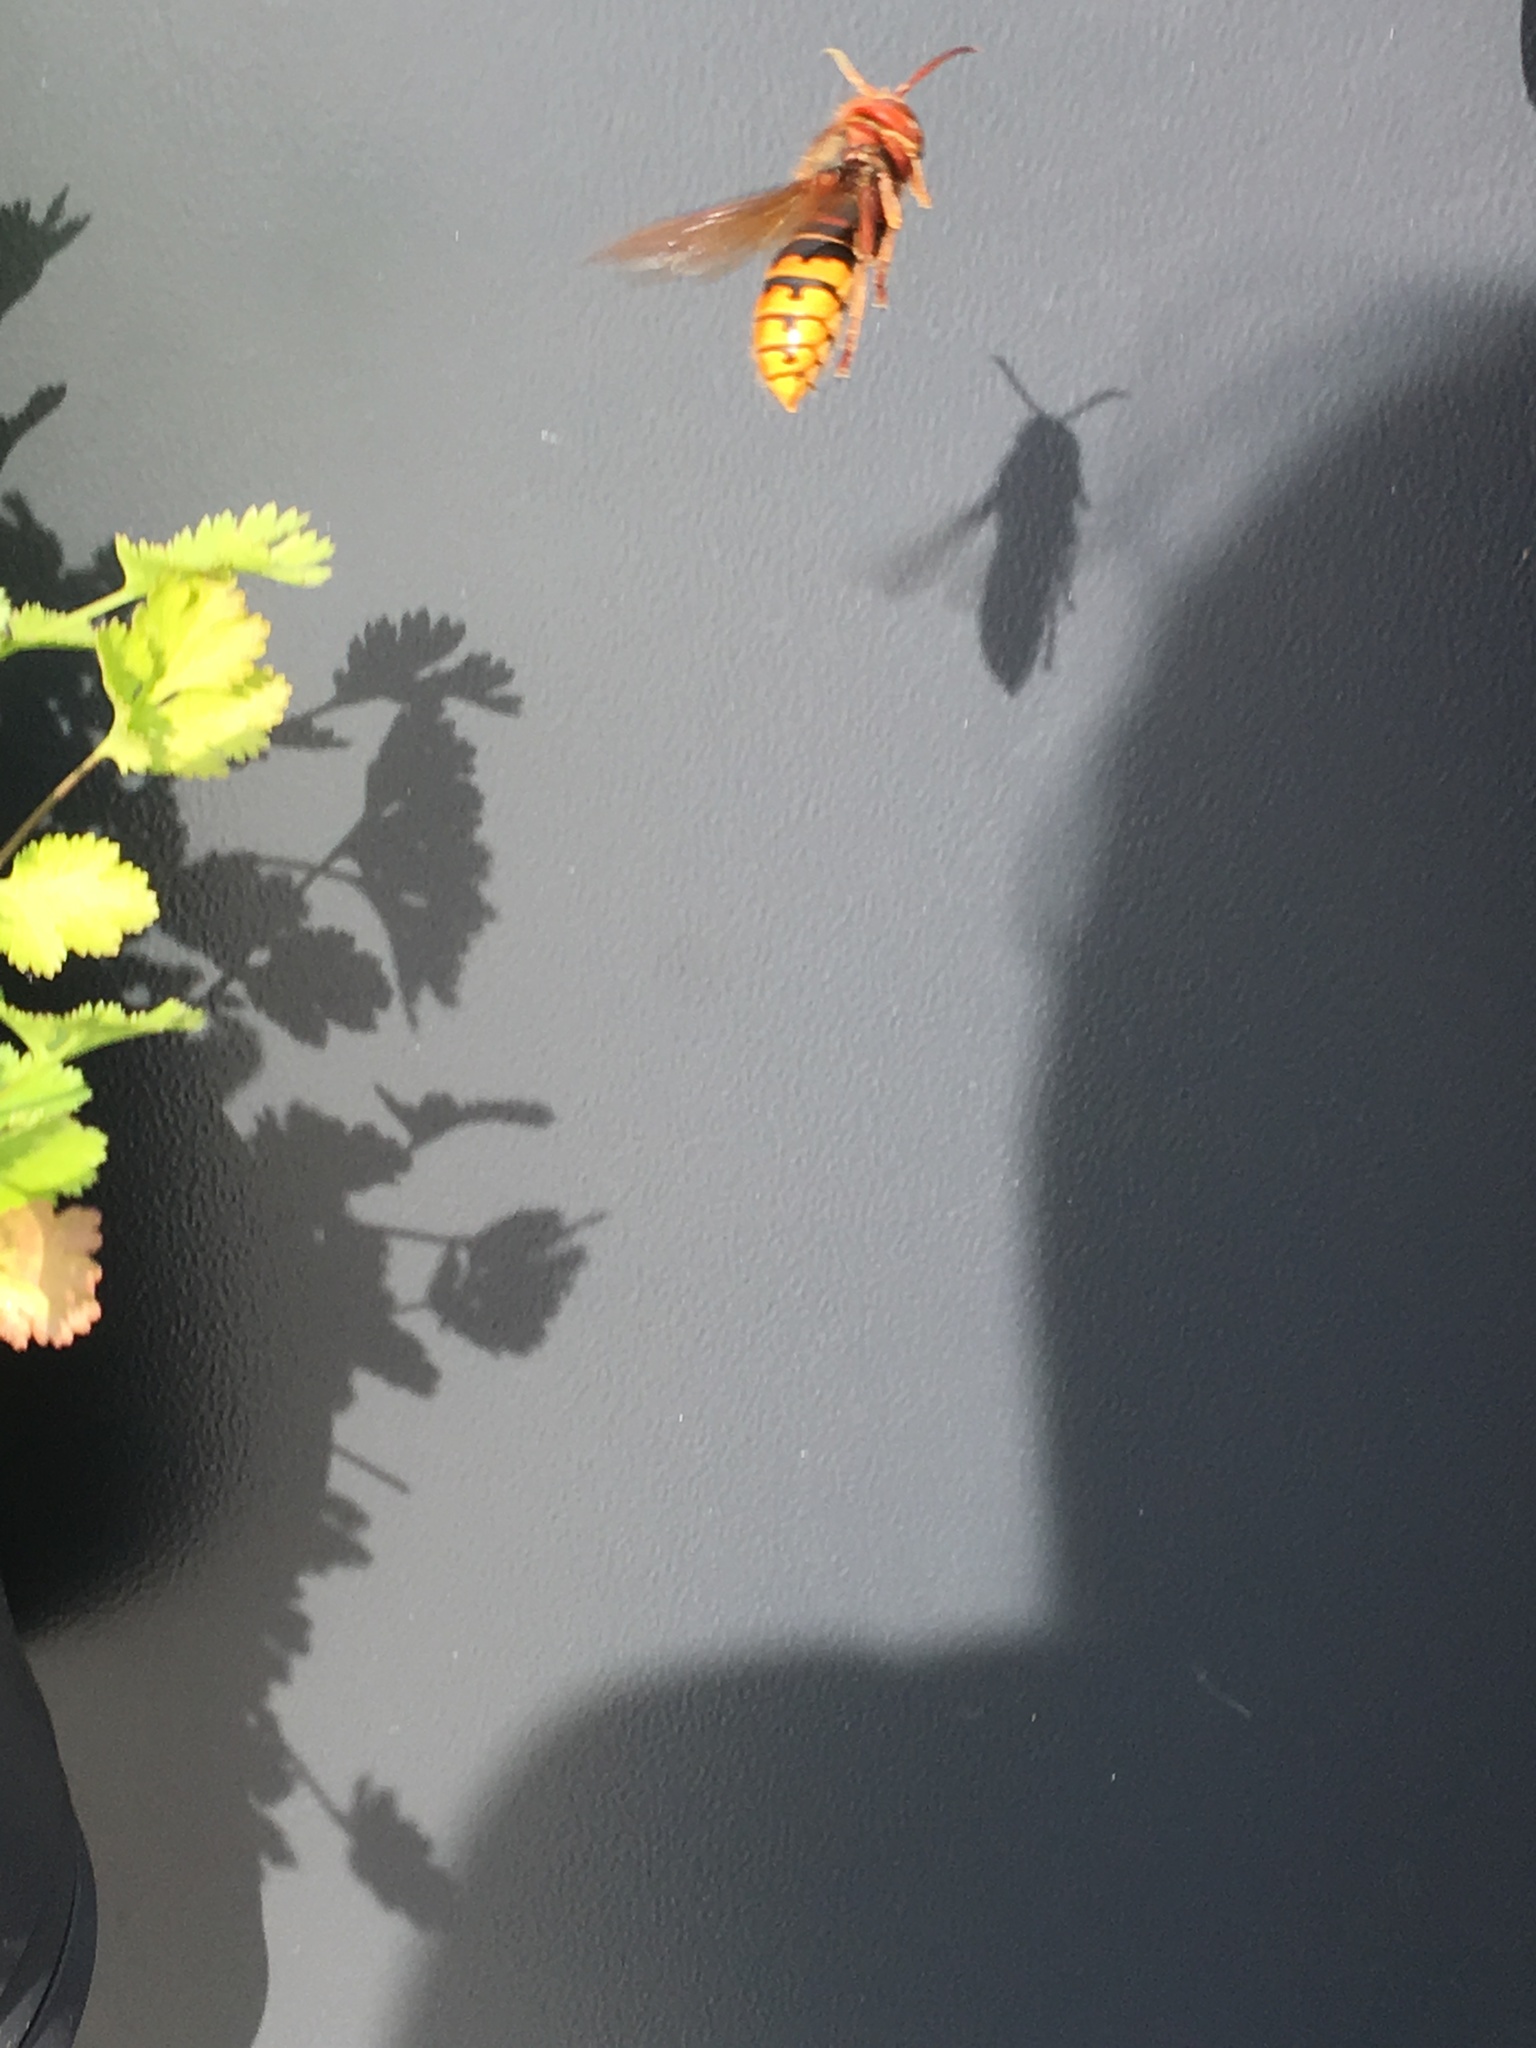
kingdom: Animalia
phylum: Arthropoda
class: Insecta
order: Hymenoptera
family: Vespidae
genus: Vespa
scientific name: Vespa crabro
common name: Hornet
